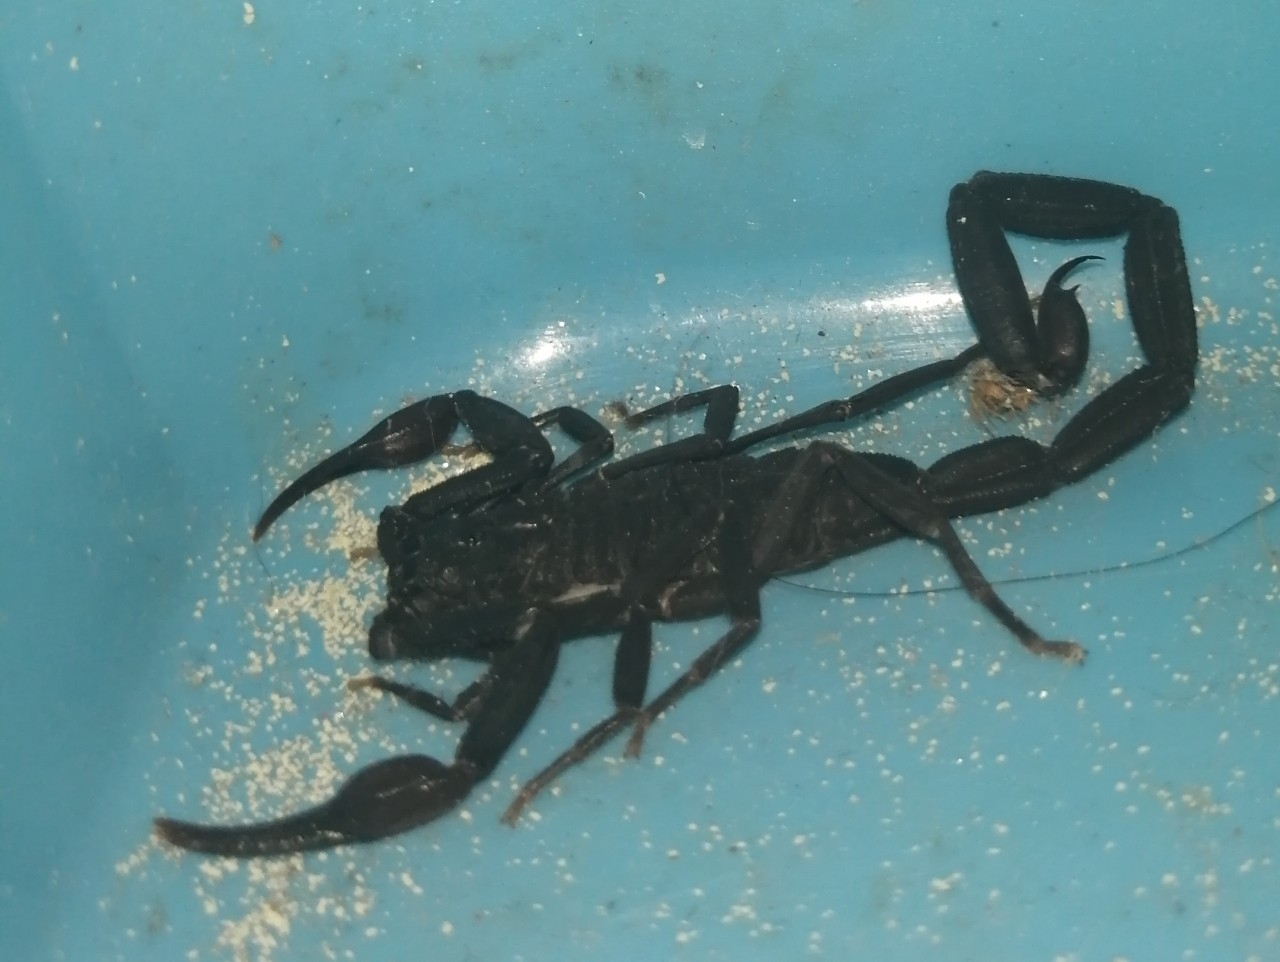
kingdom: Animalia
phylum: Arthropoda
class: Arachnida
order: Scorpiones
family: Buthidae
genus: Centruroides
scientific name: Centruroides gracilis
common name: Scorpions
